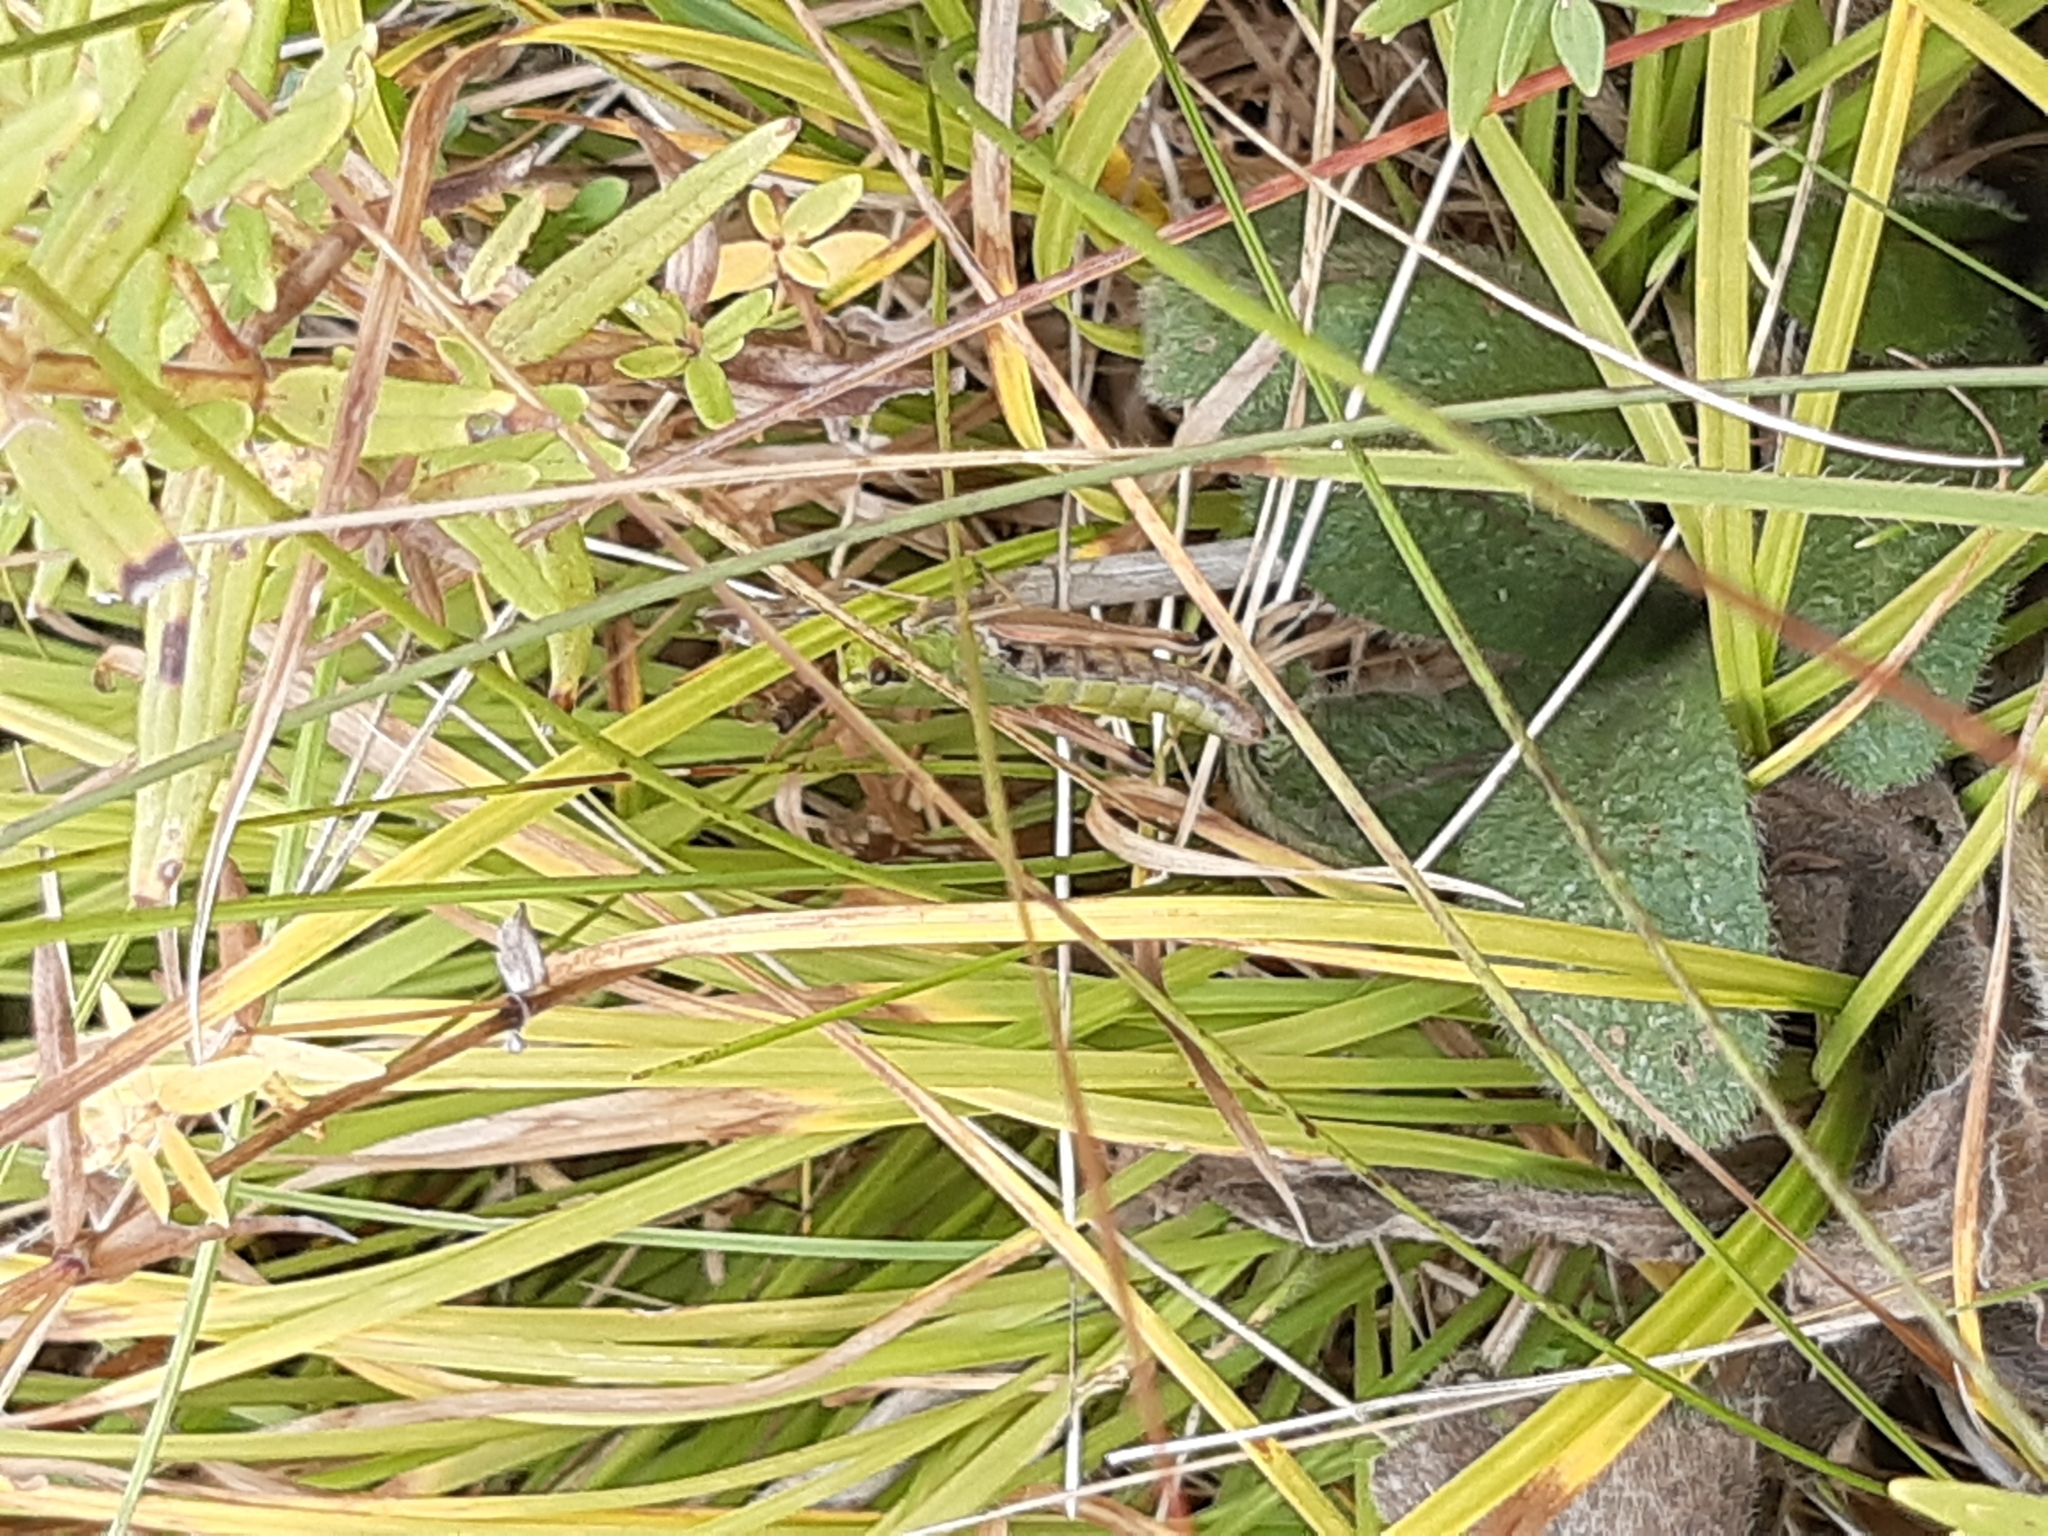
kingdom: Animalia
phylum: Arthropoda
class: Insecta
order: Orthoptera
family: Acrididae
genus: Pseudochorthippus
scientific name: Pseudochorthippus parallelus
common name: Meadow grasshopper
